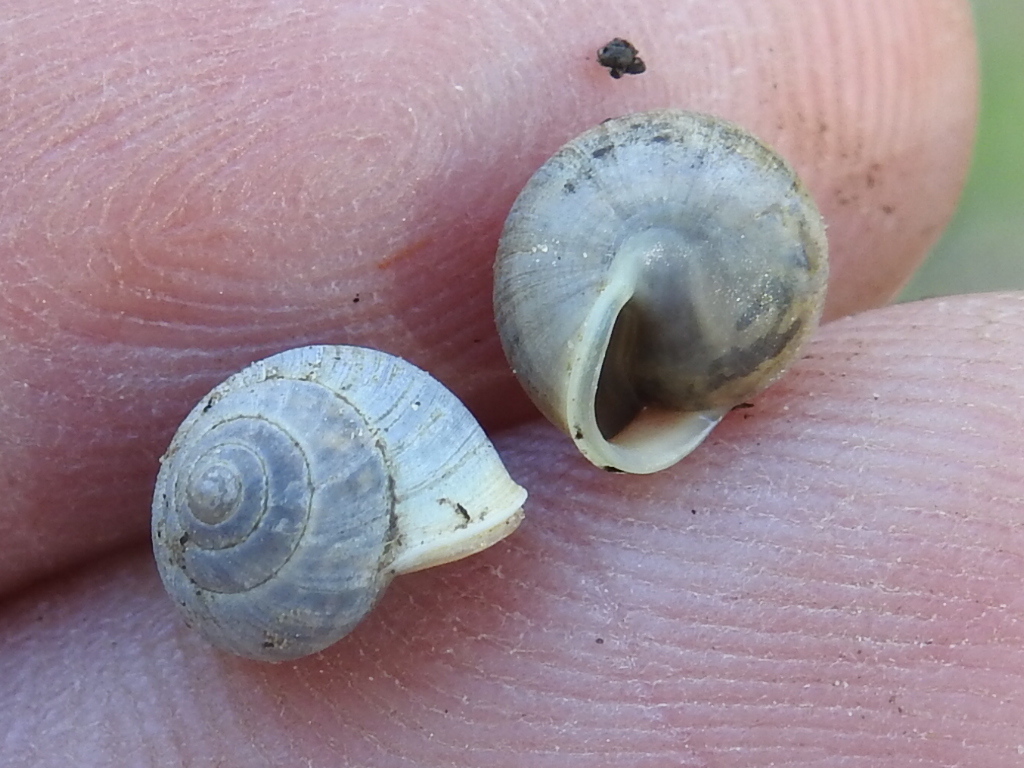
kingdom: Animalia
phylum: Mollusca
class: Gastropoda
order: Cycloneritida
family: Helicinidae
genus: Helicina
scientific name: Helicina orbiculata
